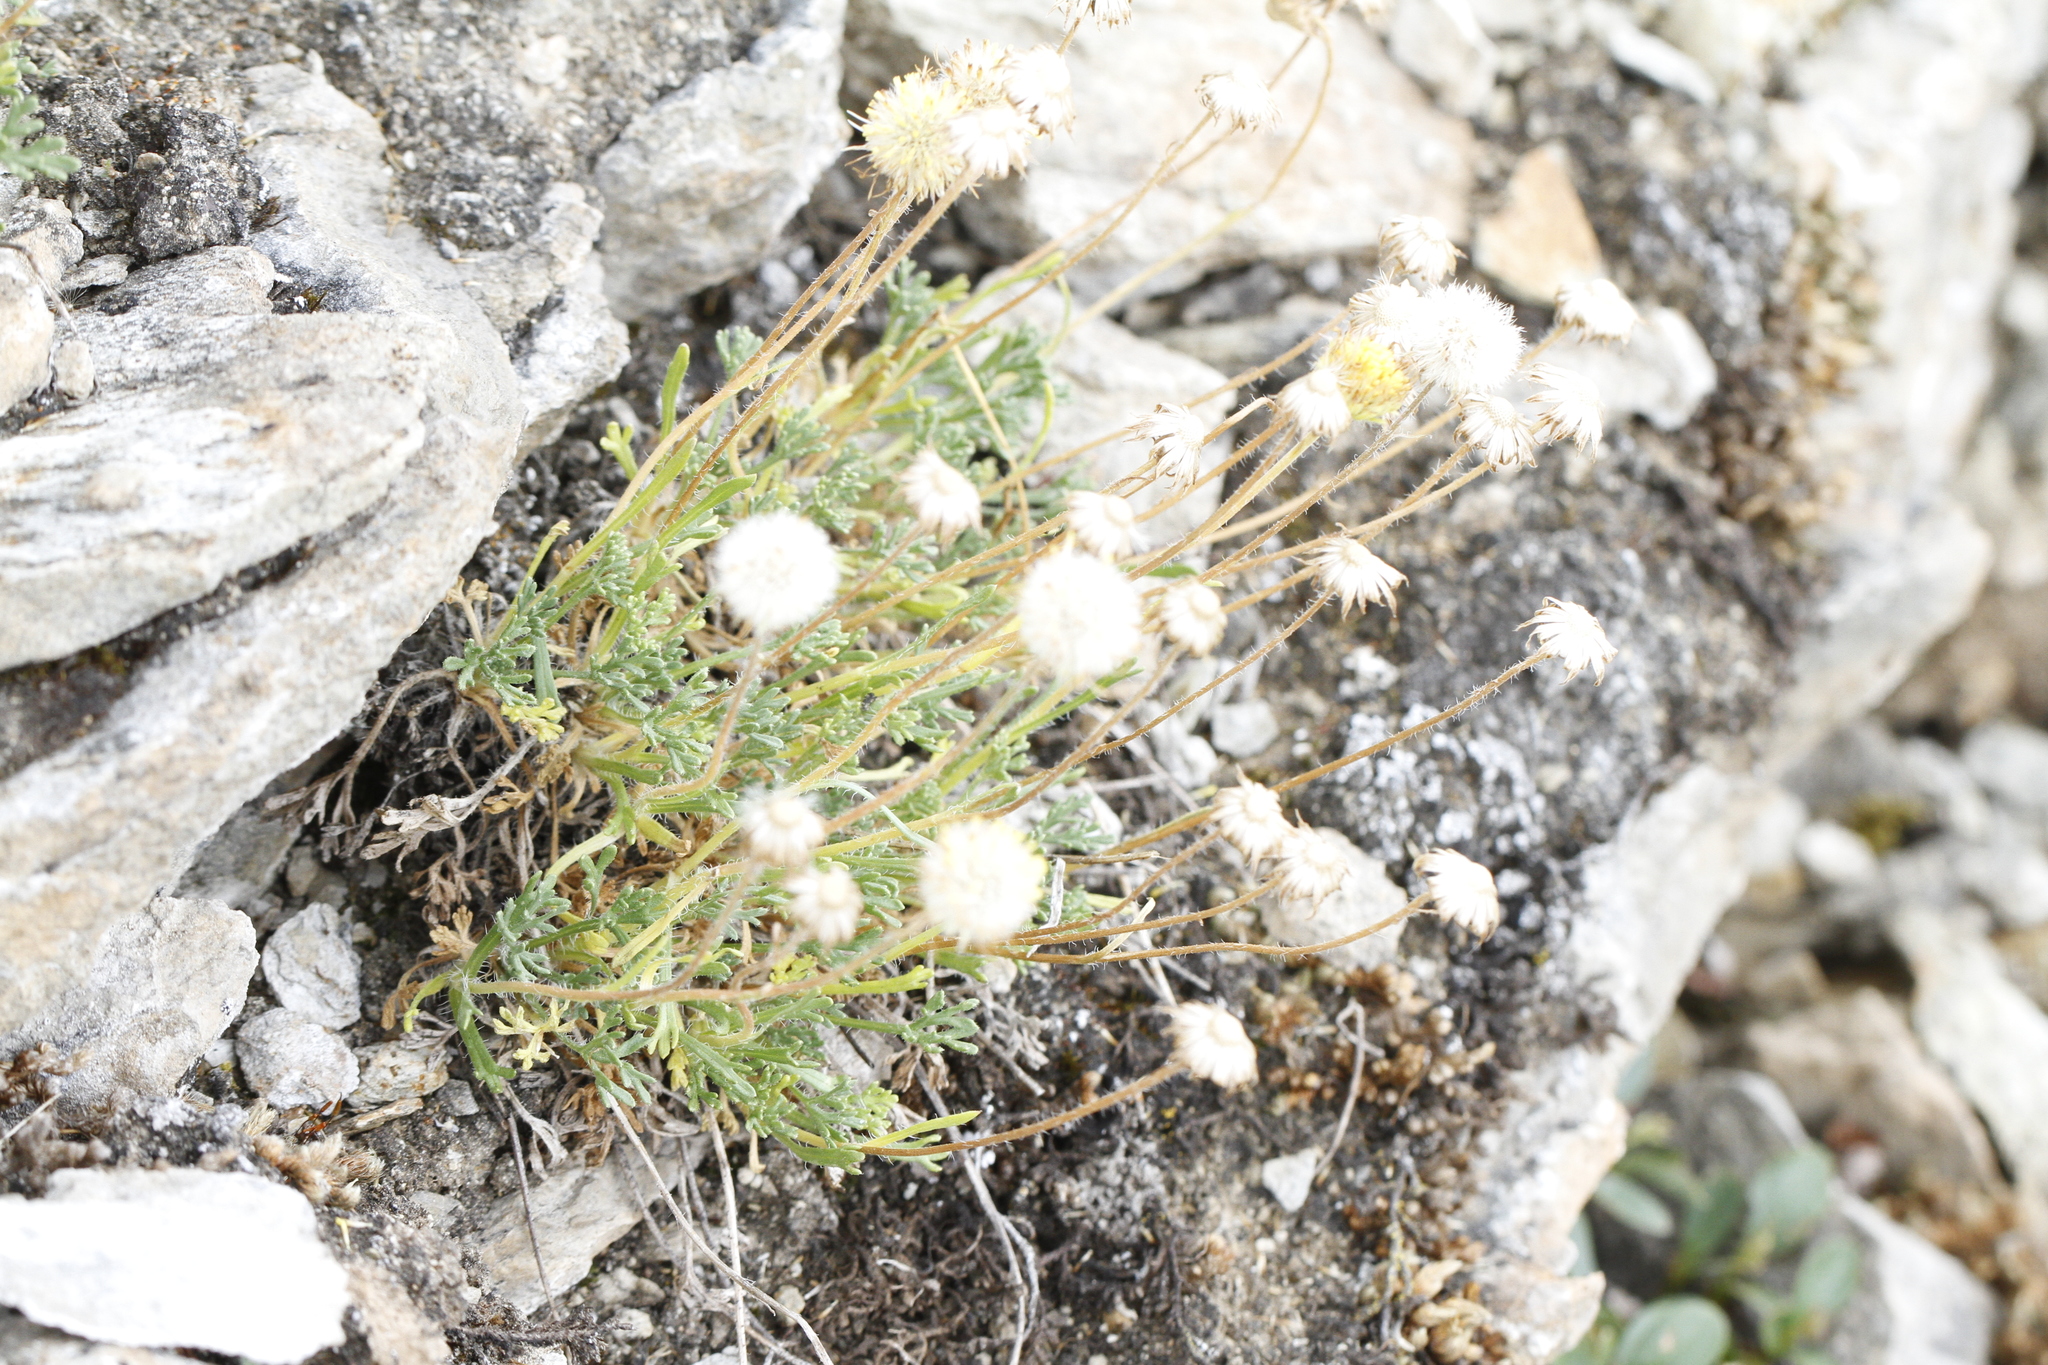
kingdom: Plantae
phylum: Tracheophyta
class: Magnoliopsida
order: Asterales
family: Asteraceae
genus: Erigeron
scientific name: Erigeron compositus
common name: Dwarf mountain fleabane
